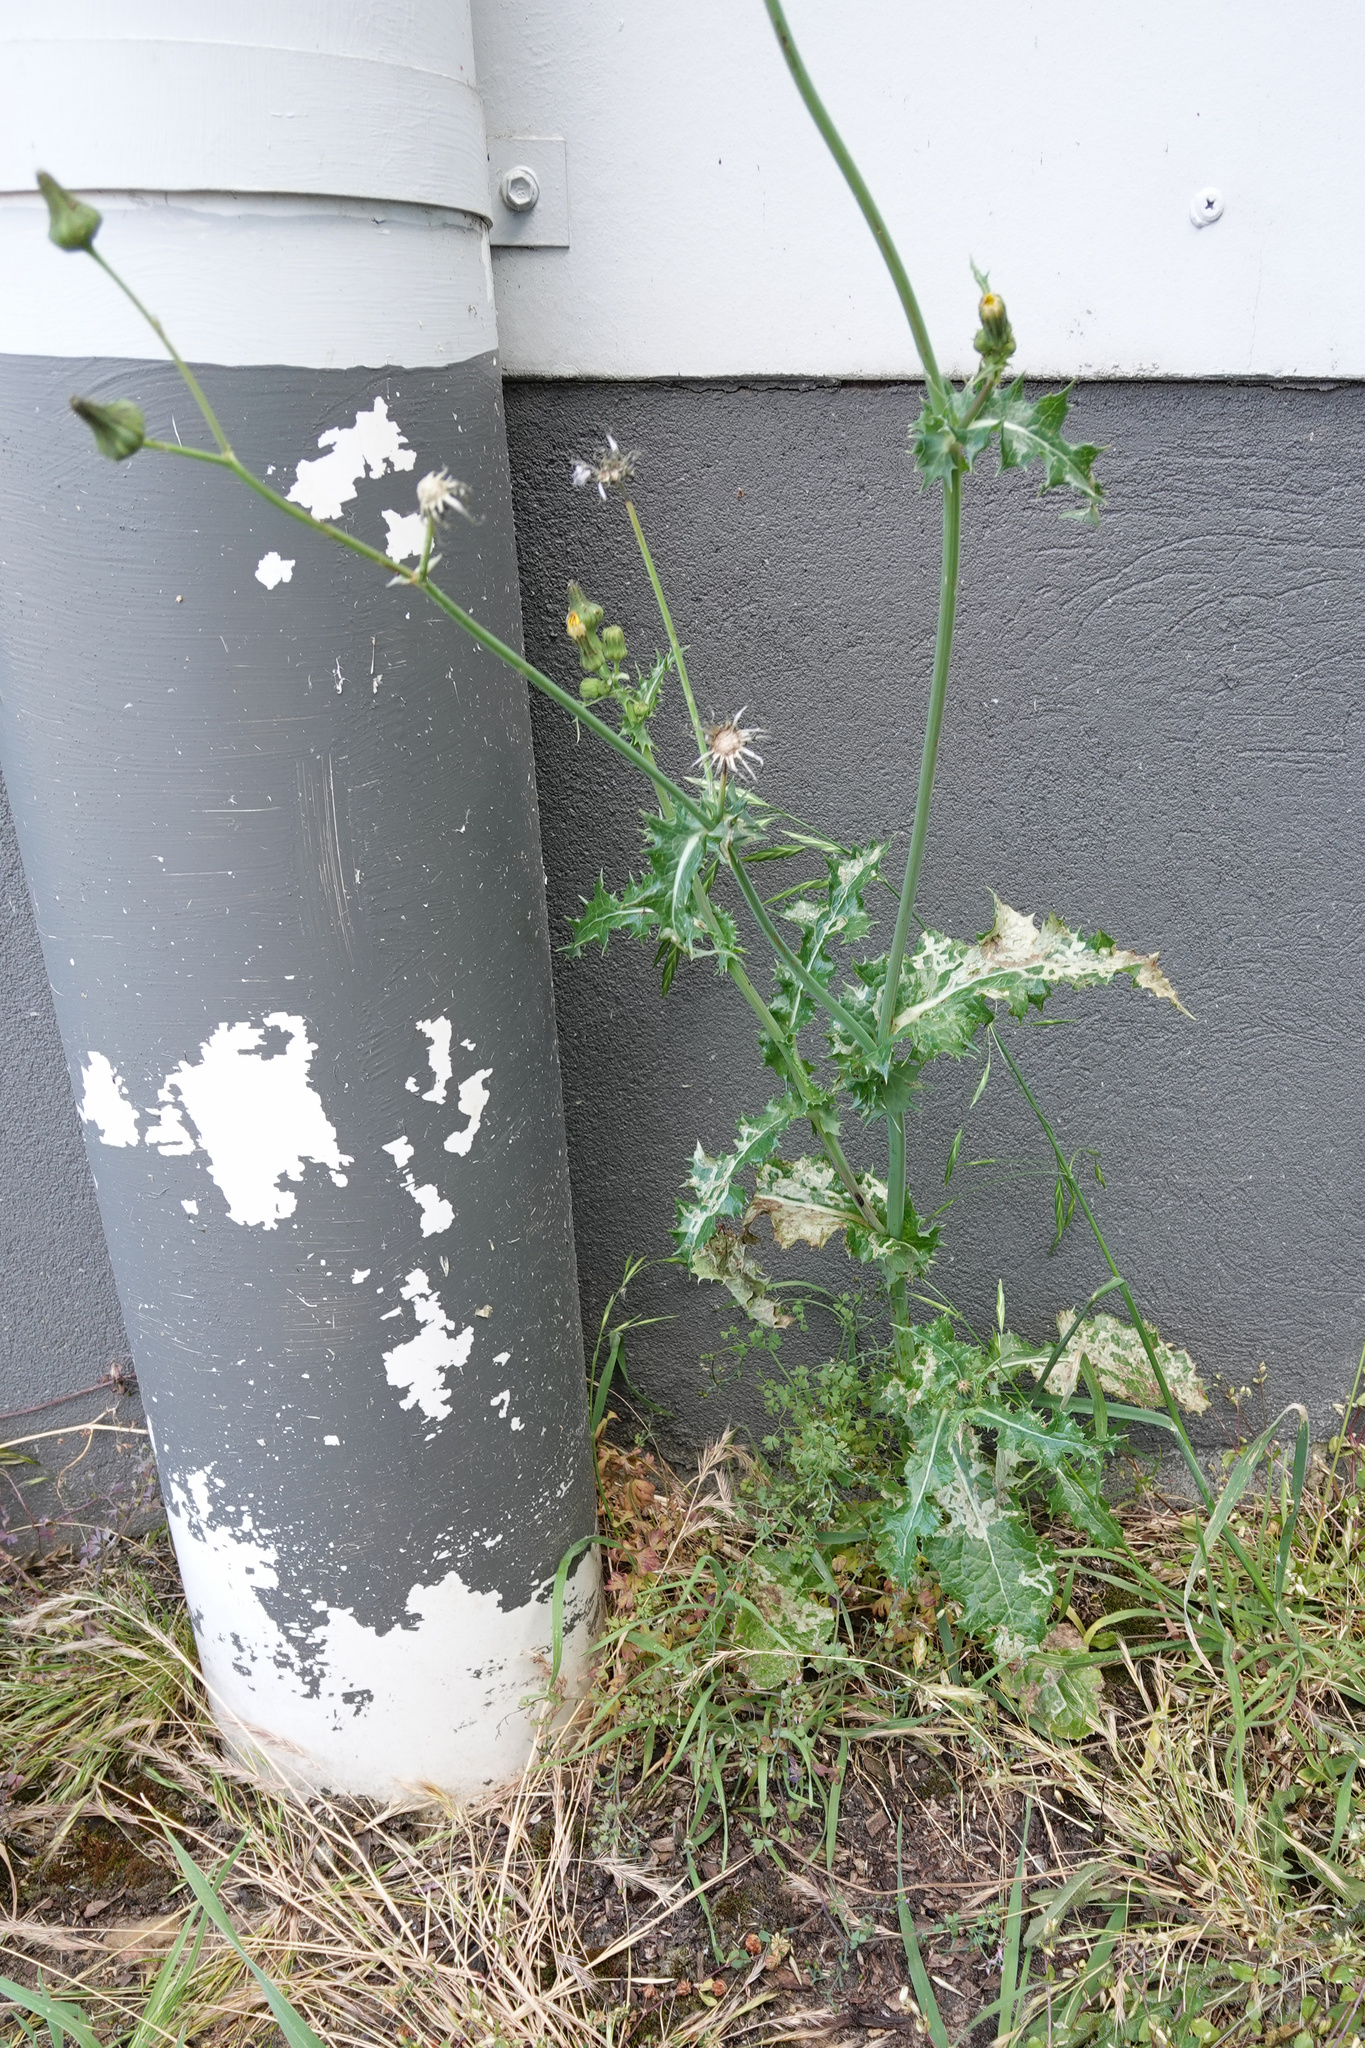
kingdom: Plantae
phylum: Tracheophyta
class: Magnoliopsida
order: Asterales
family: Asteraceae
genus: Sonchus
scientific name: Sonchus asper
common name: Prickly sow-thistle
